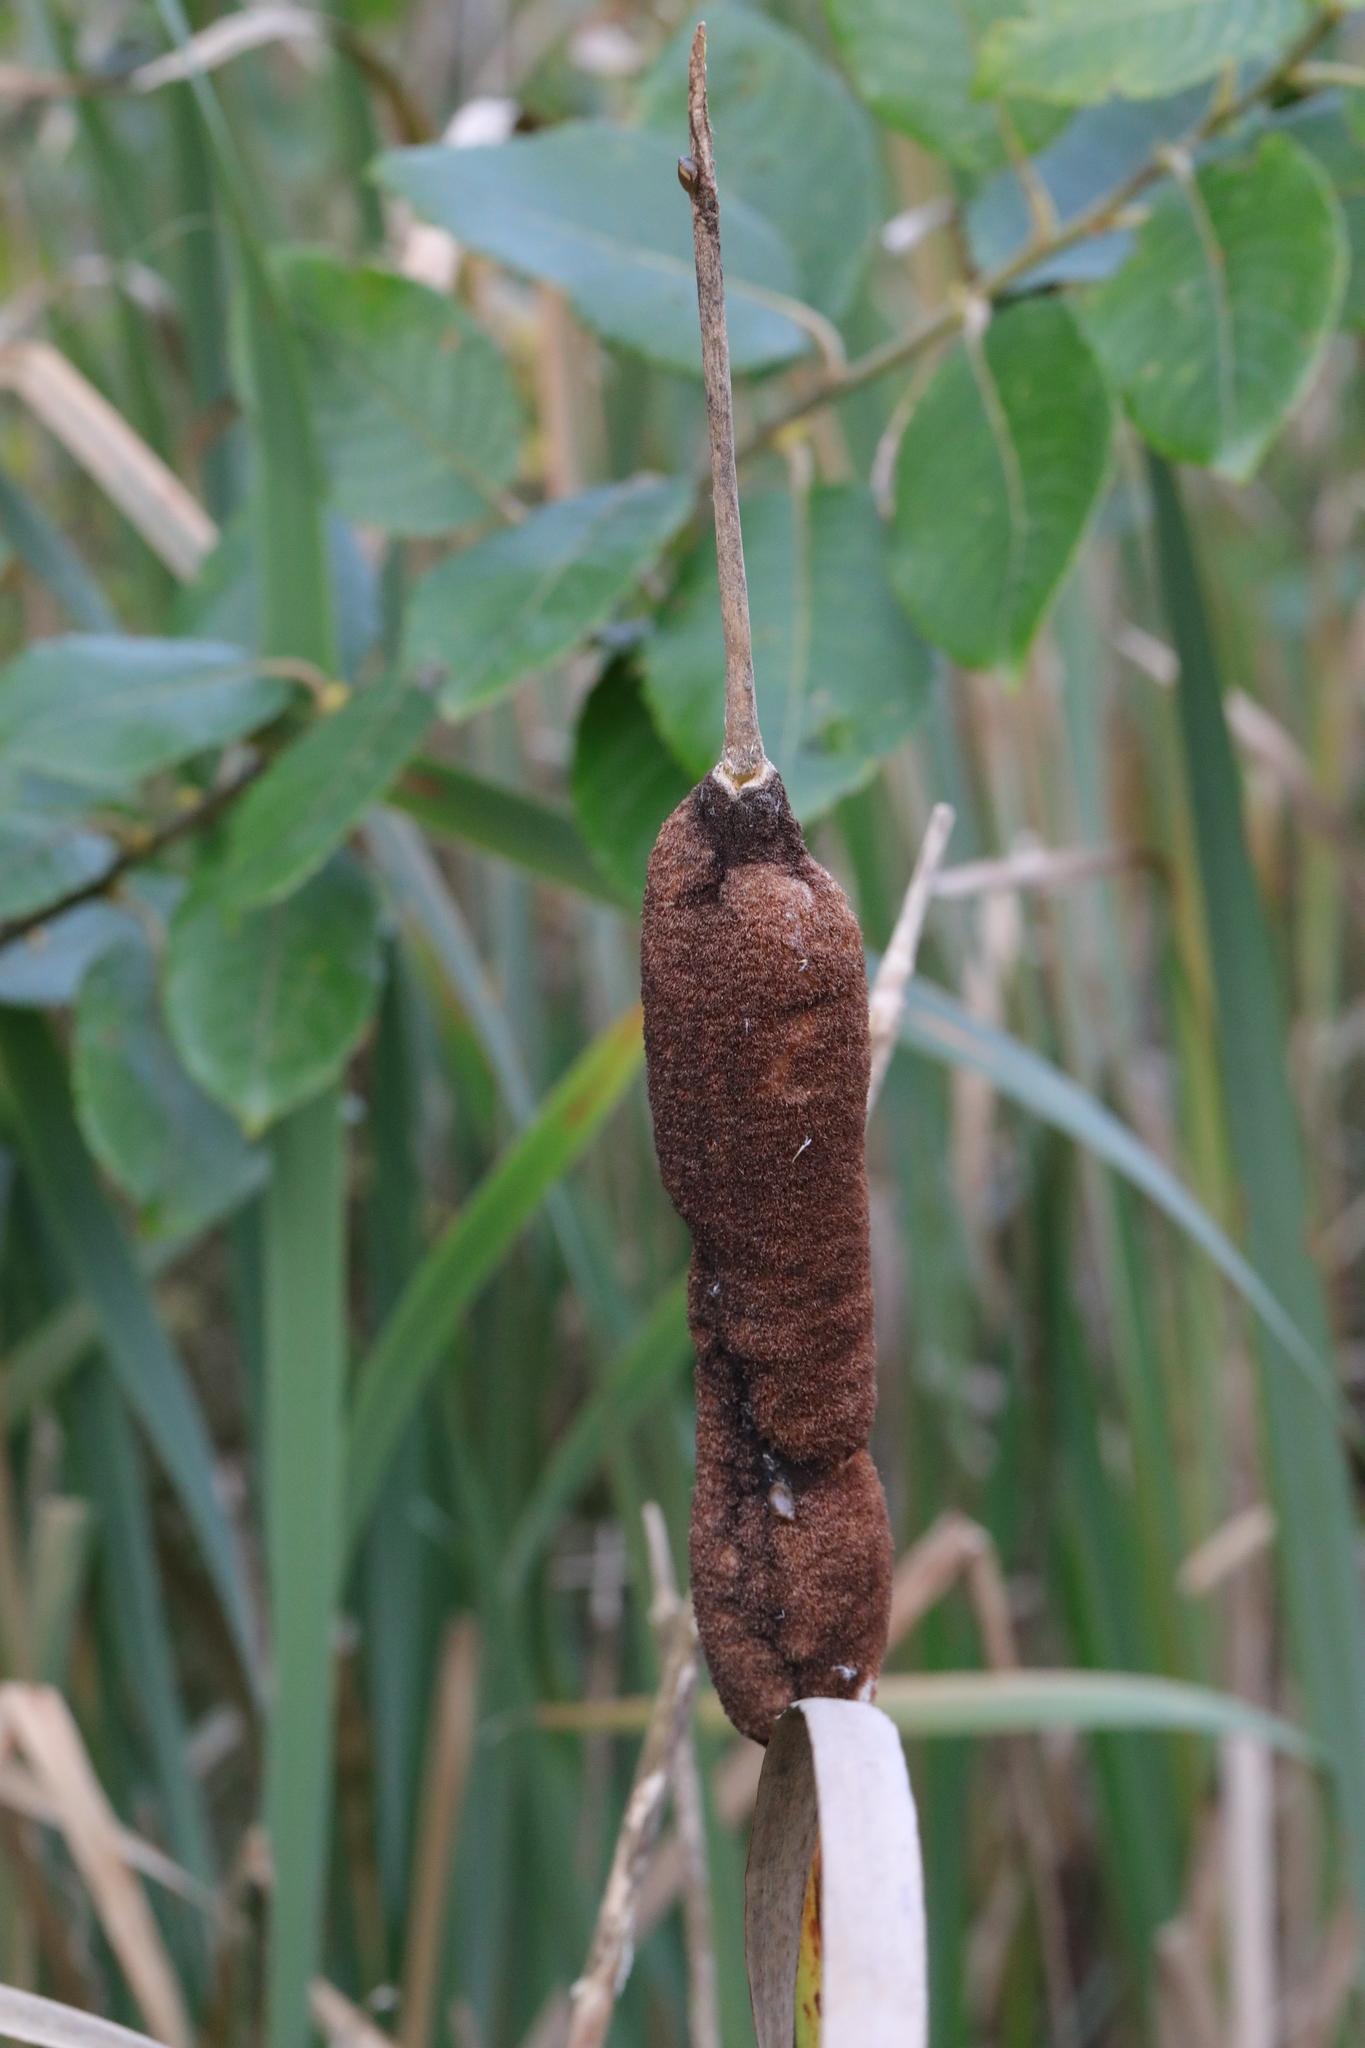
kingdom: Plantae
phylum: Tracheophyta
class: Liliopsida
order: Poales
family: Typhaceae
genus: Typha
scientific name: Typha latifolia
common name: Broadleaf cattail
